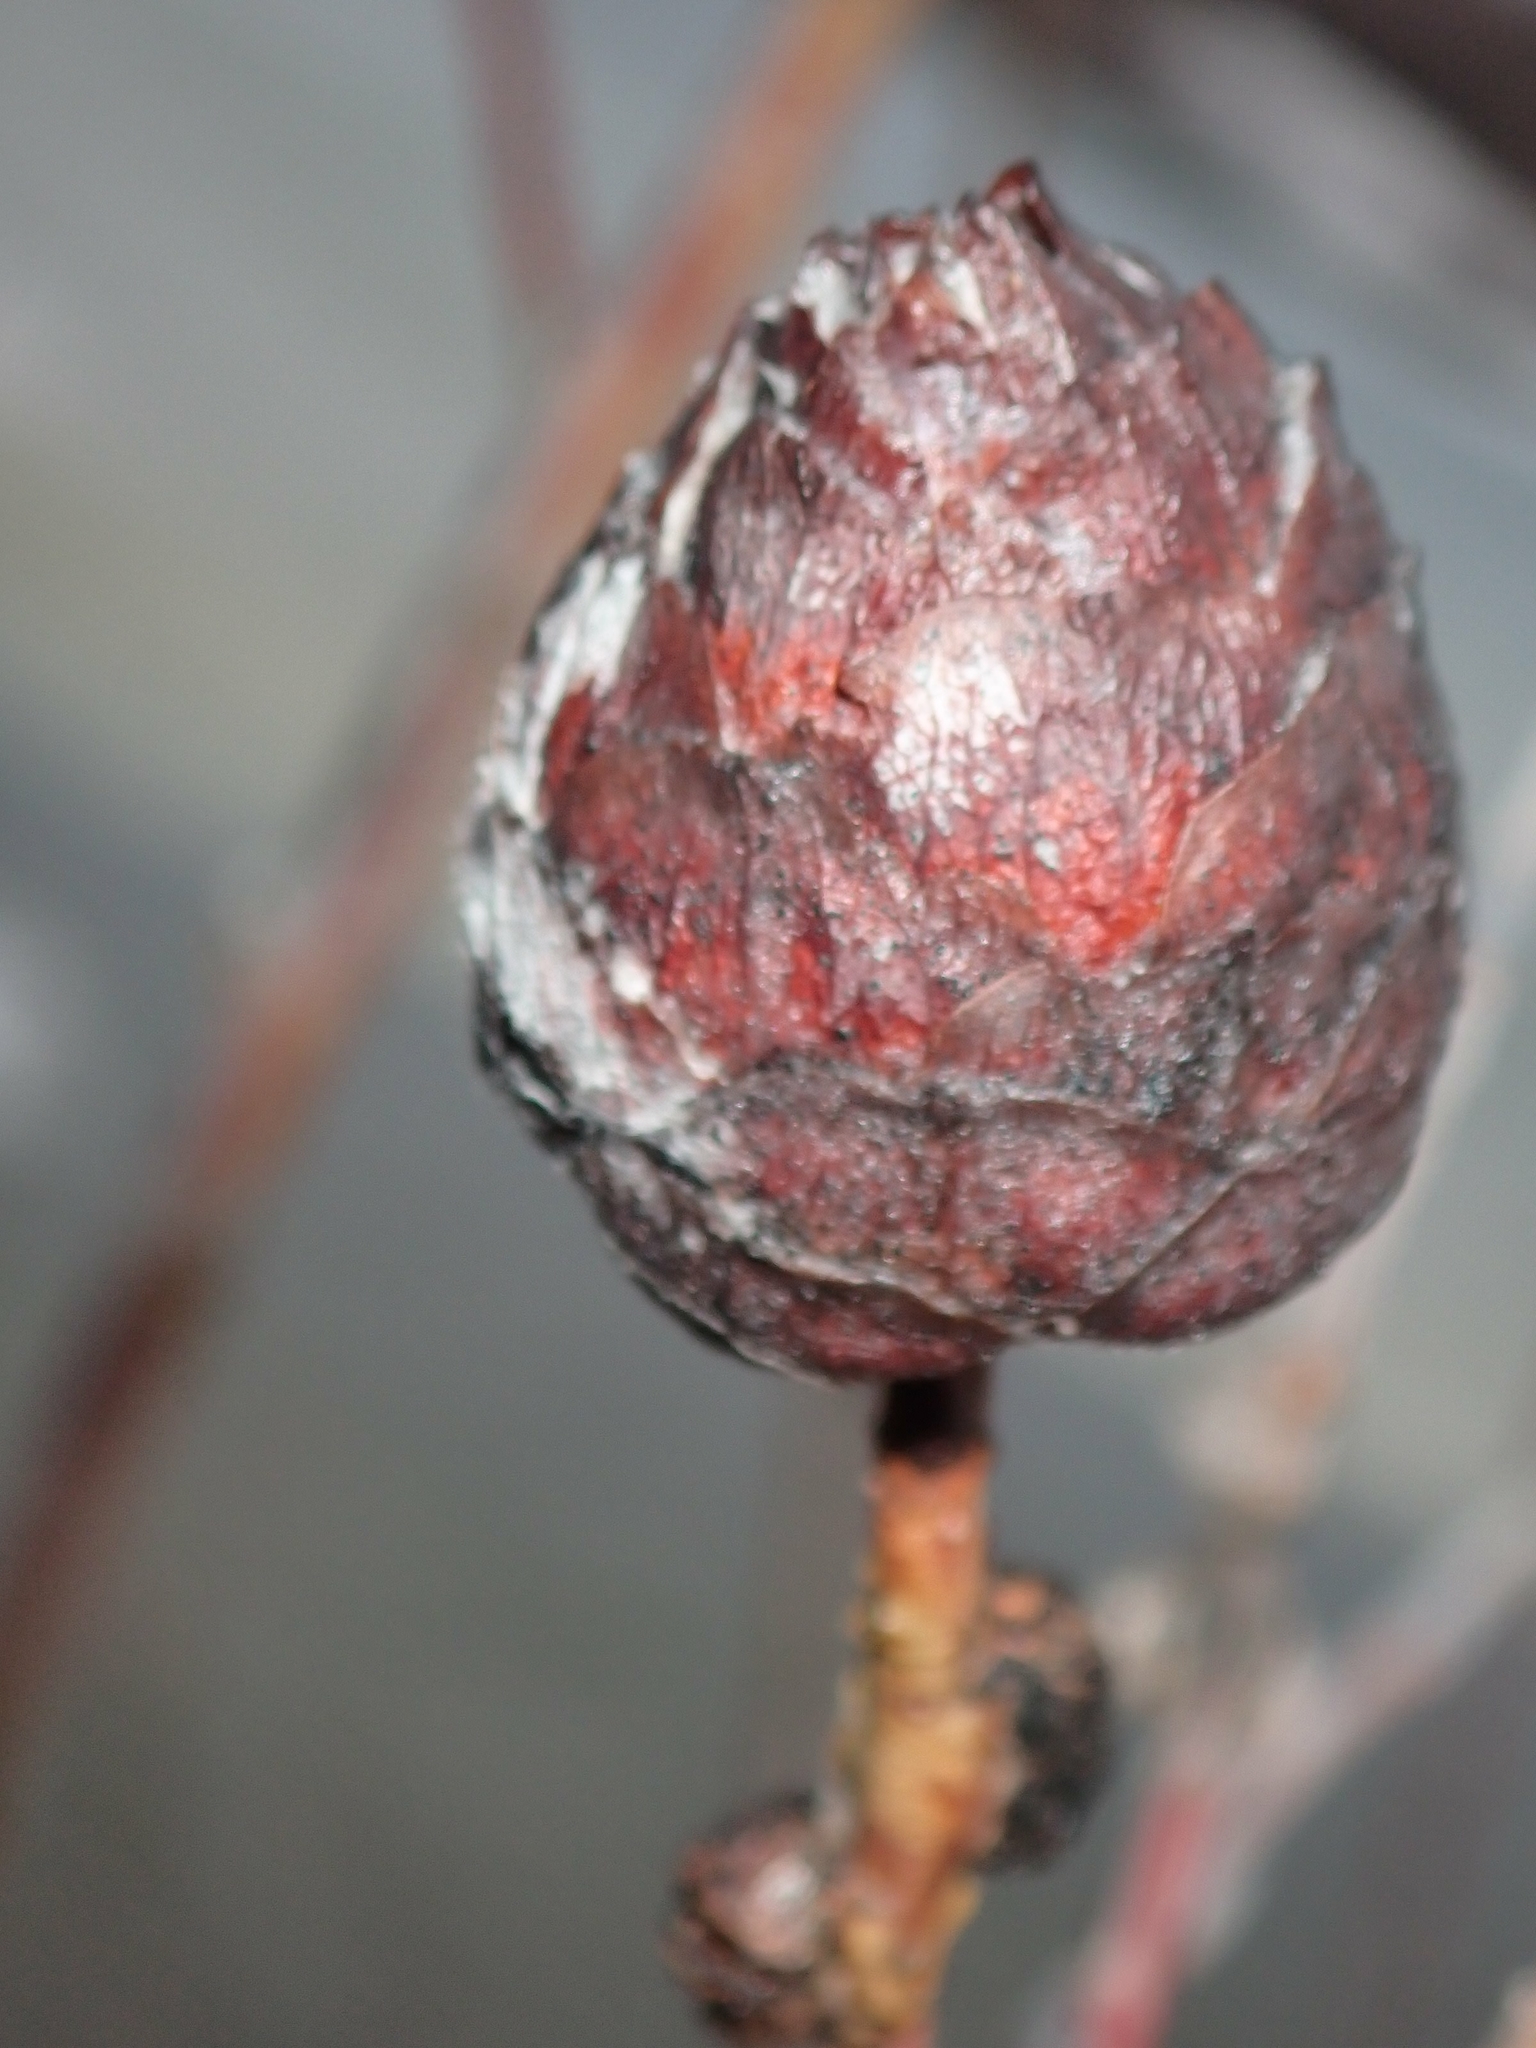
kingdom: Animalia
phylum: Arthropoda
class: Insecta
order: Diptera
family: Cecidomyiidae
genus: Rabdophaga
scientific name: Rabdophaga strobiloides
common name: Willow pinecone gall midge
